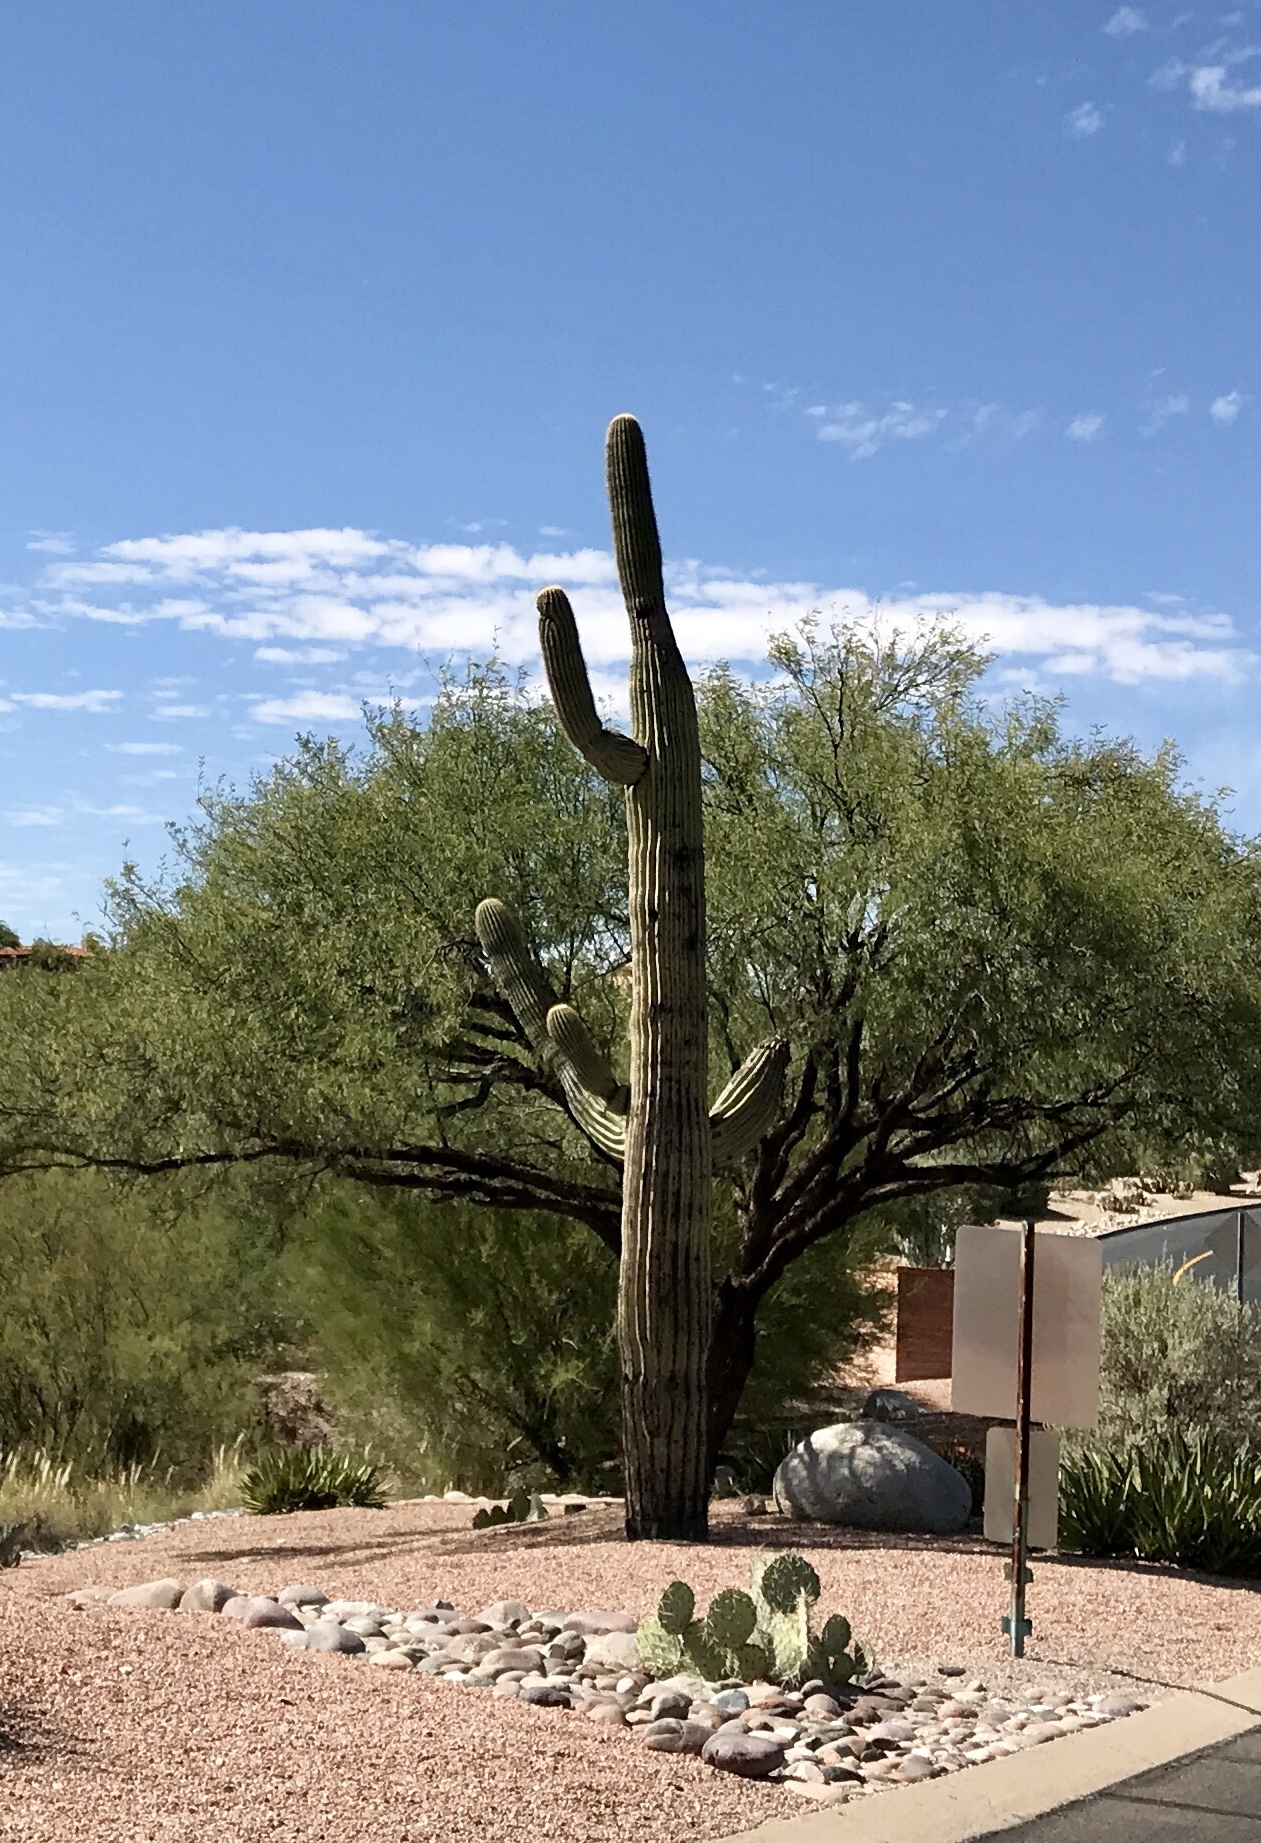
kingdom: Plantae
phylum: Tracheophyta
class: Magnoliopsida
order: Caryophyllales
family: Cactaceae
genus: Carnegiea
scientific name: Carnegiea gigantea
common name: Saguaro
